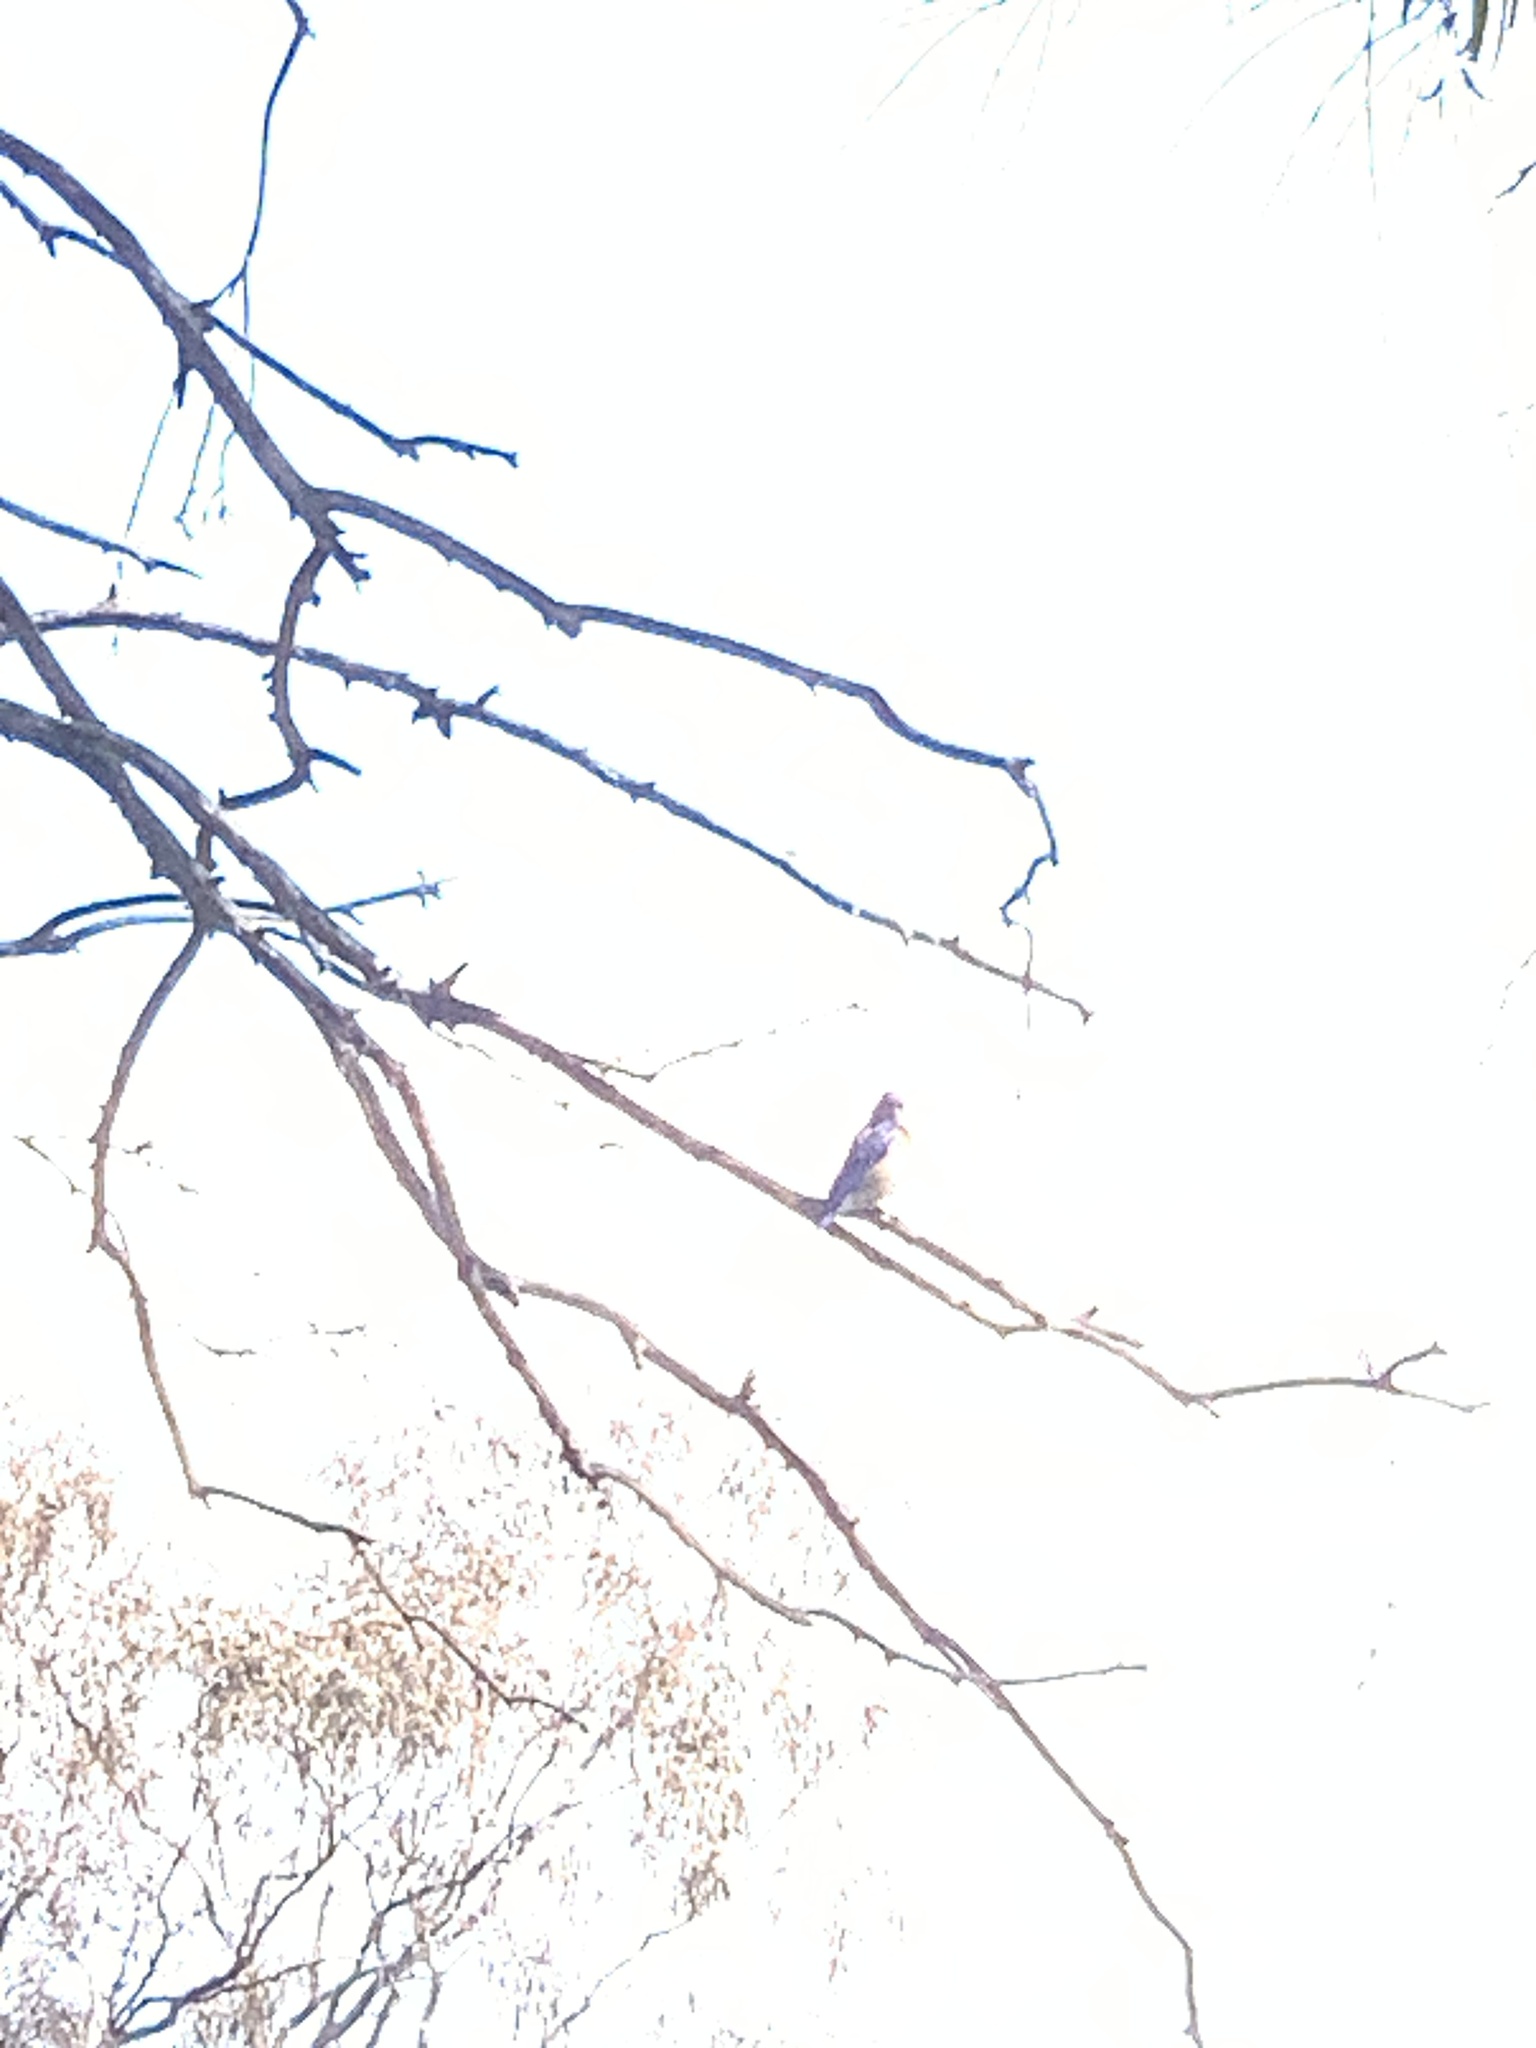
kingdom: Animalia
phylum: Chordata
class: Aves
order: Passeriformes
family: Turdidae
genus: Sialia
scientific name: Sialia mexicana
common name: Western bluebird
